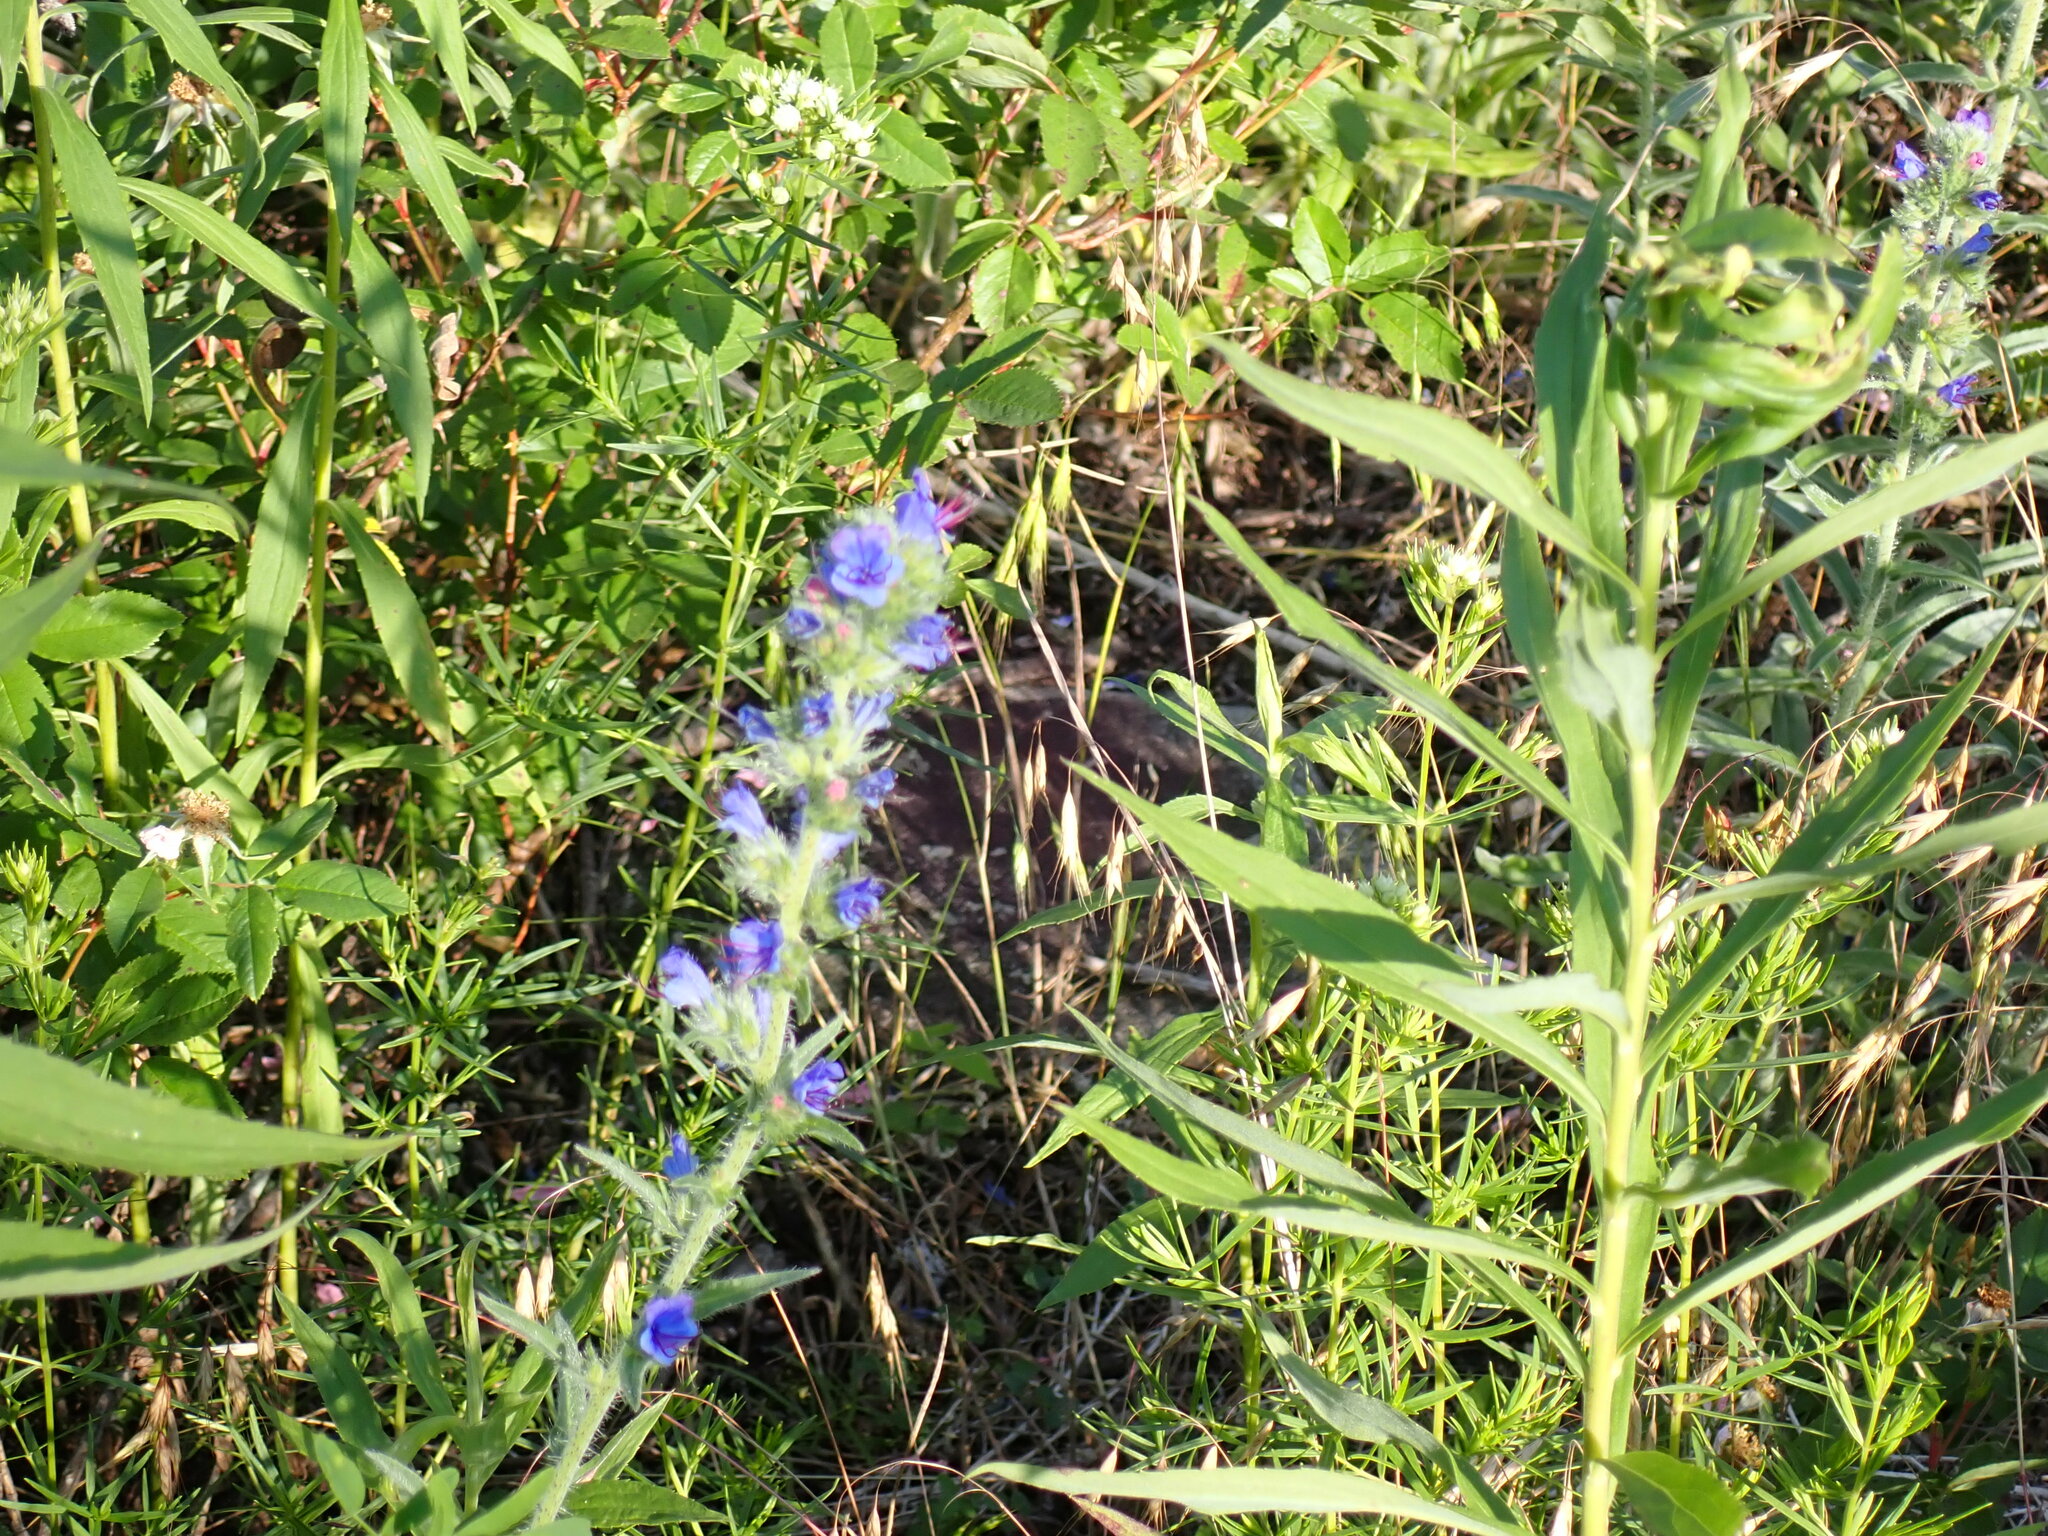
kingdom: Plantae
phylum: Tracheophyta
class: Magnoliopsida
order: Boraginales
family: Boraginaceae
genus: Echium
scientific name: Echium vulgare
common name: Common viper's bugloss
